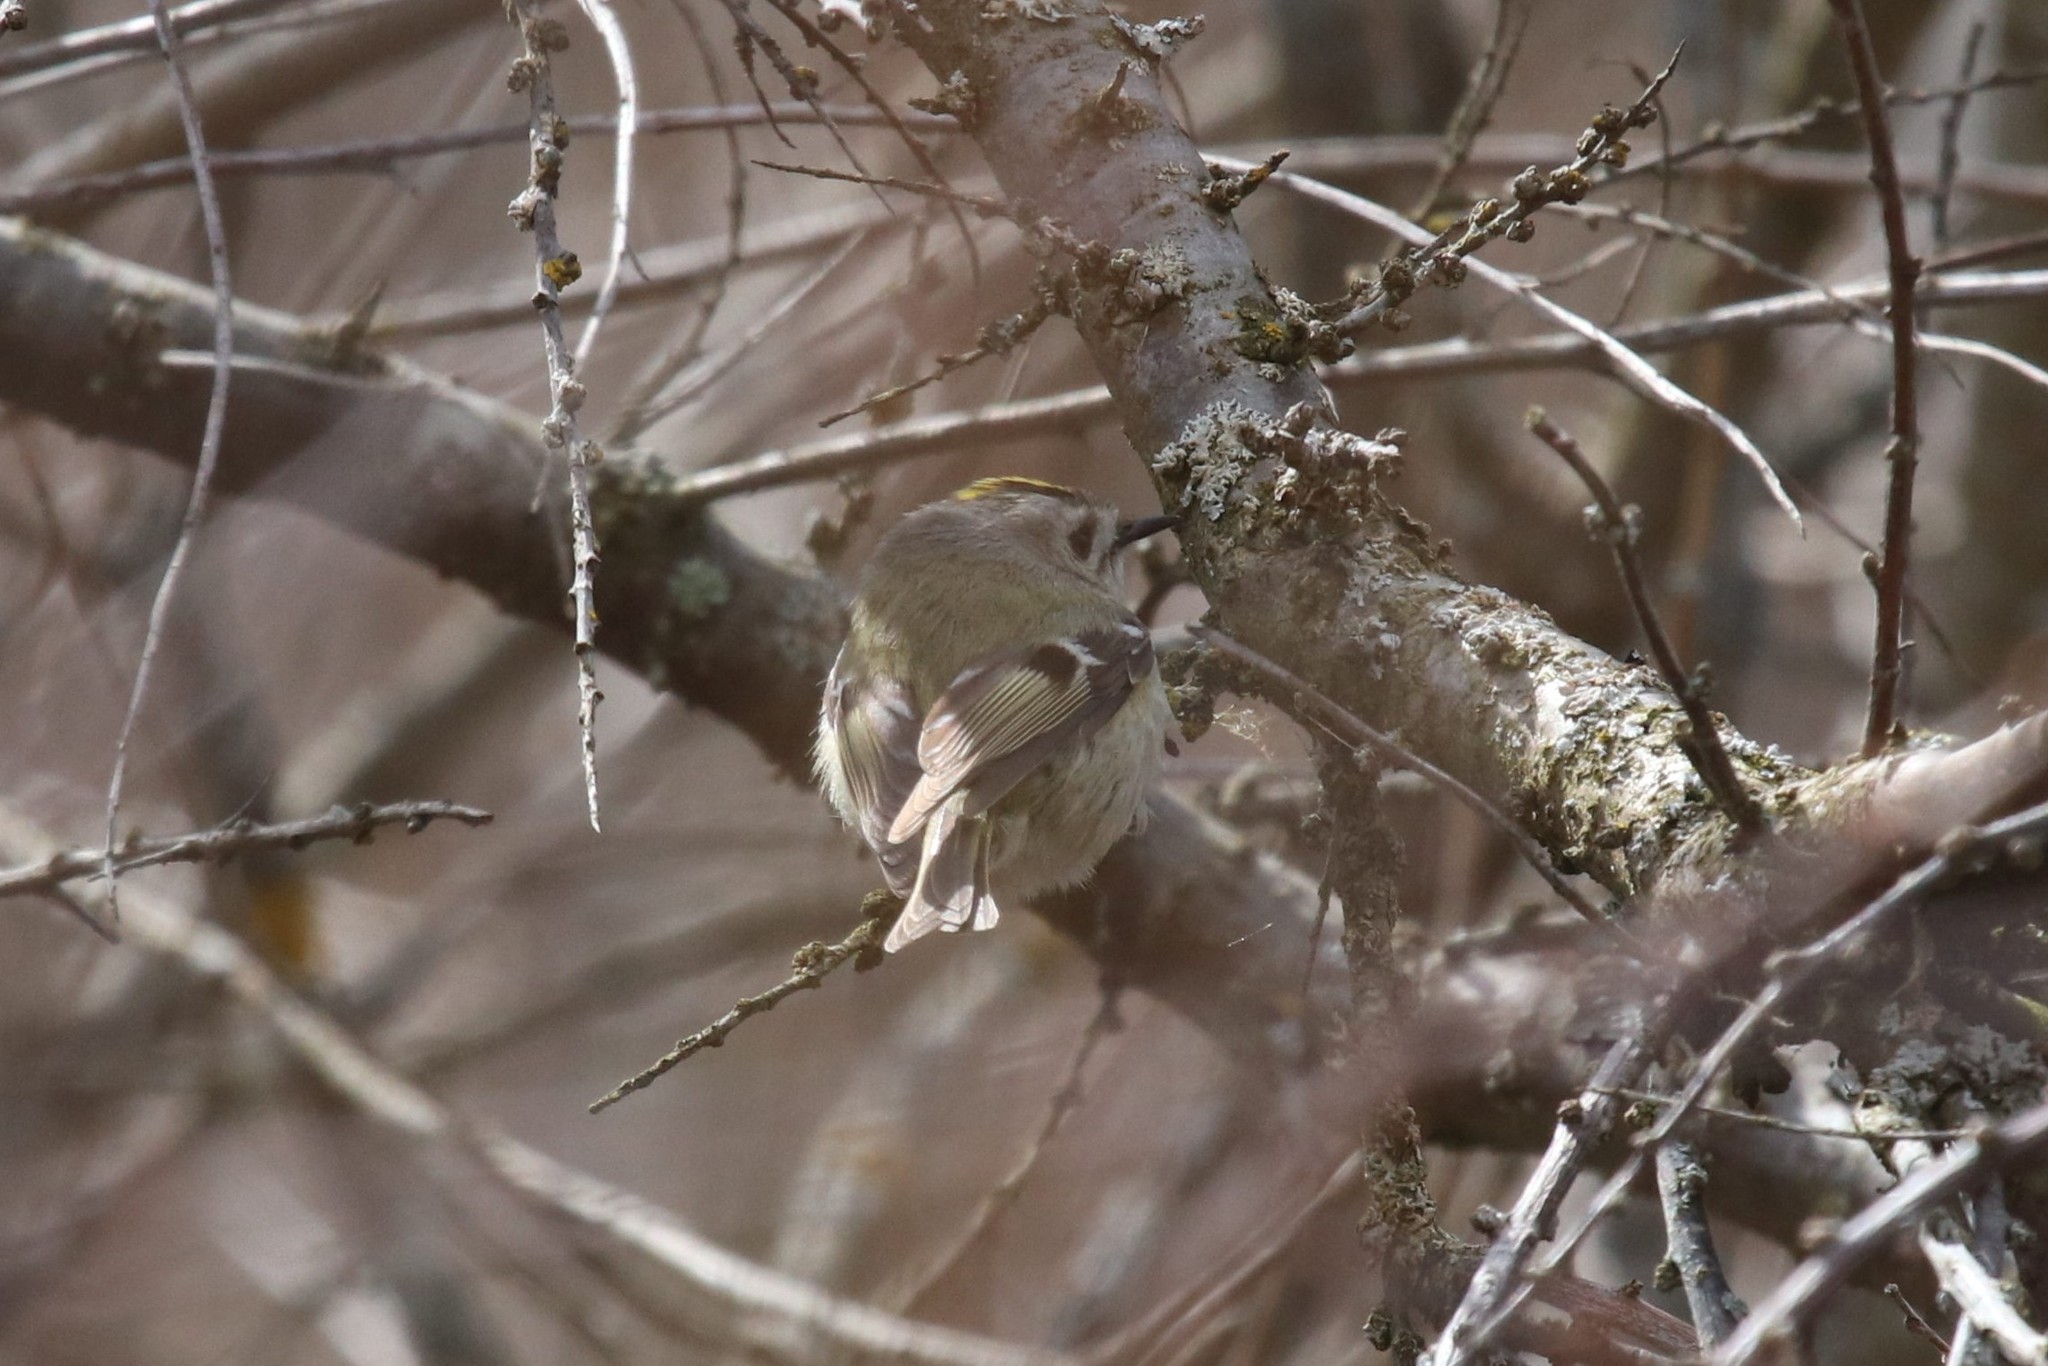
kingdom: Animalia
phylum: Chordata
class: Aves
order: Passeriformes
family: Regulidae
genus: Regulus
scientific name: Regulus regulus
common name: Goldcrest
